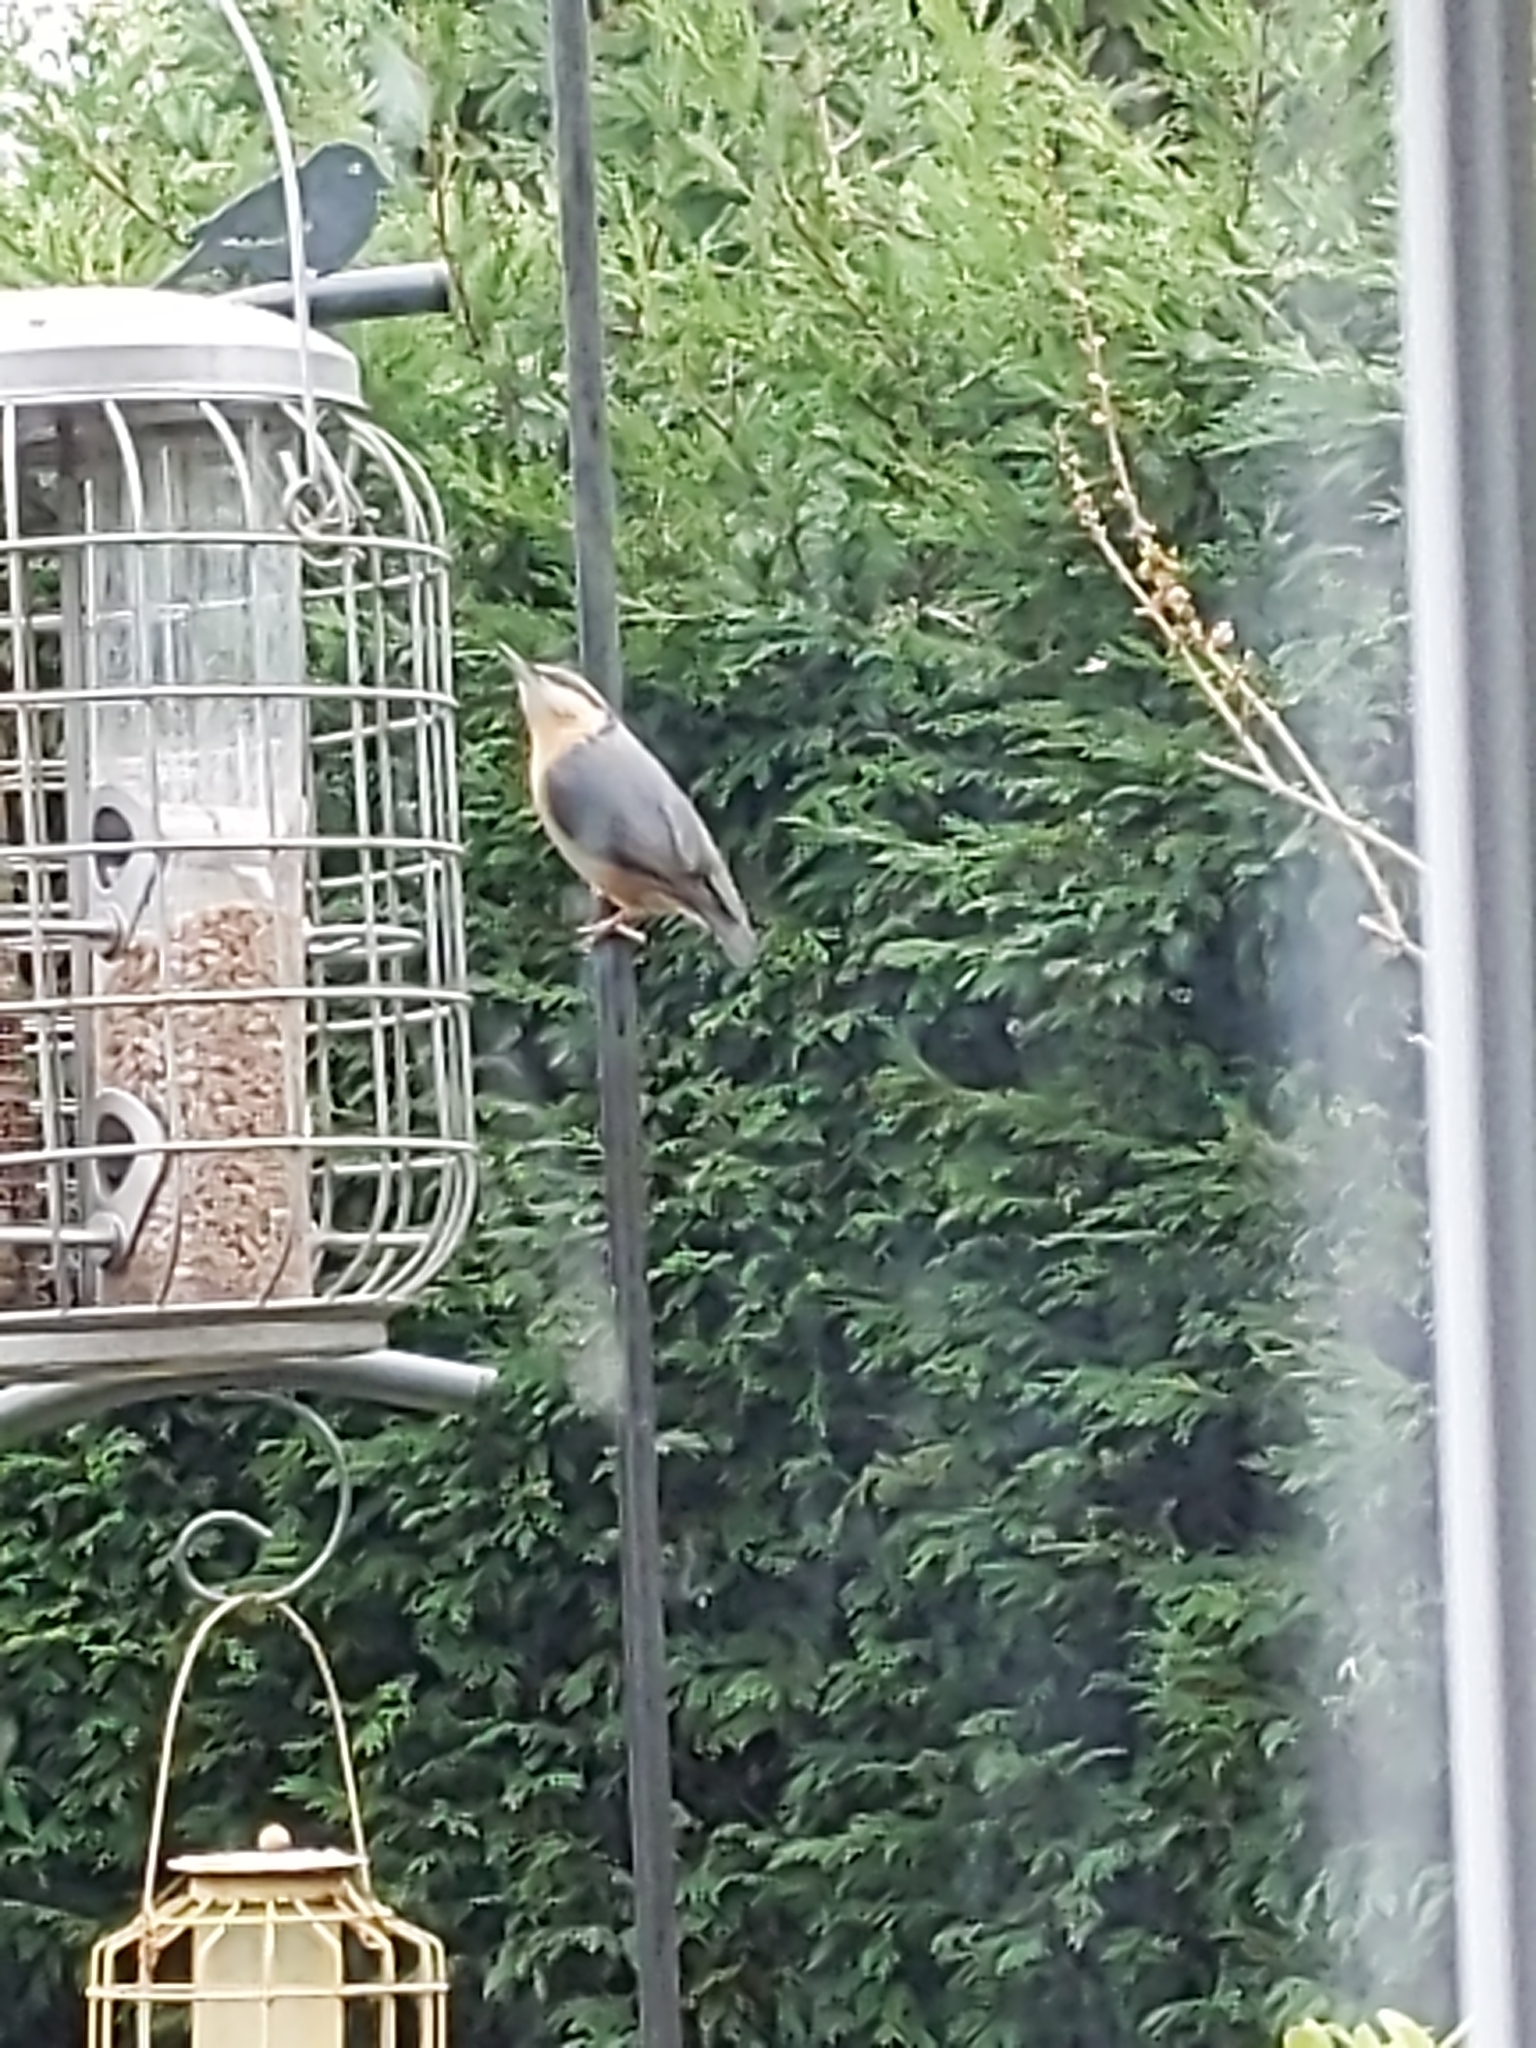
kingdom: Animalia
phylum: Chordata
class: Aves
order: Passeriformes
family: Sittidae
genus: Sitta
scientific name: Sitta europaea
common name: Eurasian nuthatch
